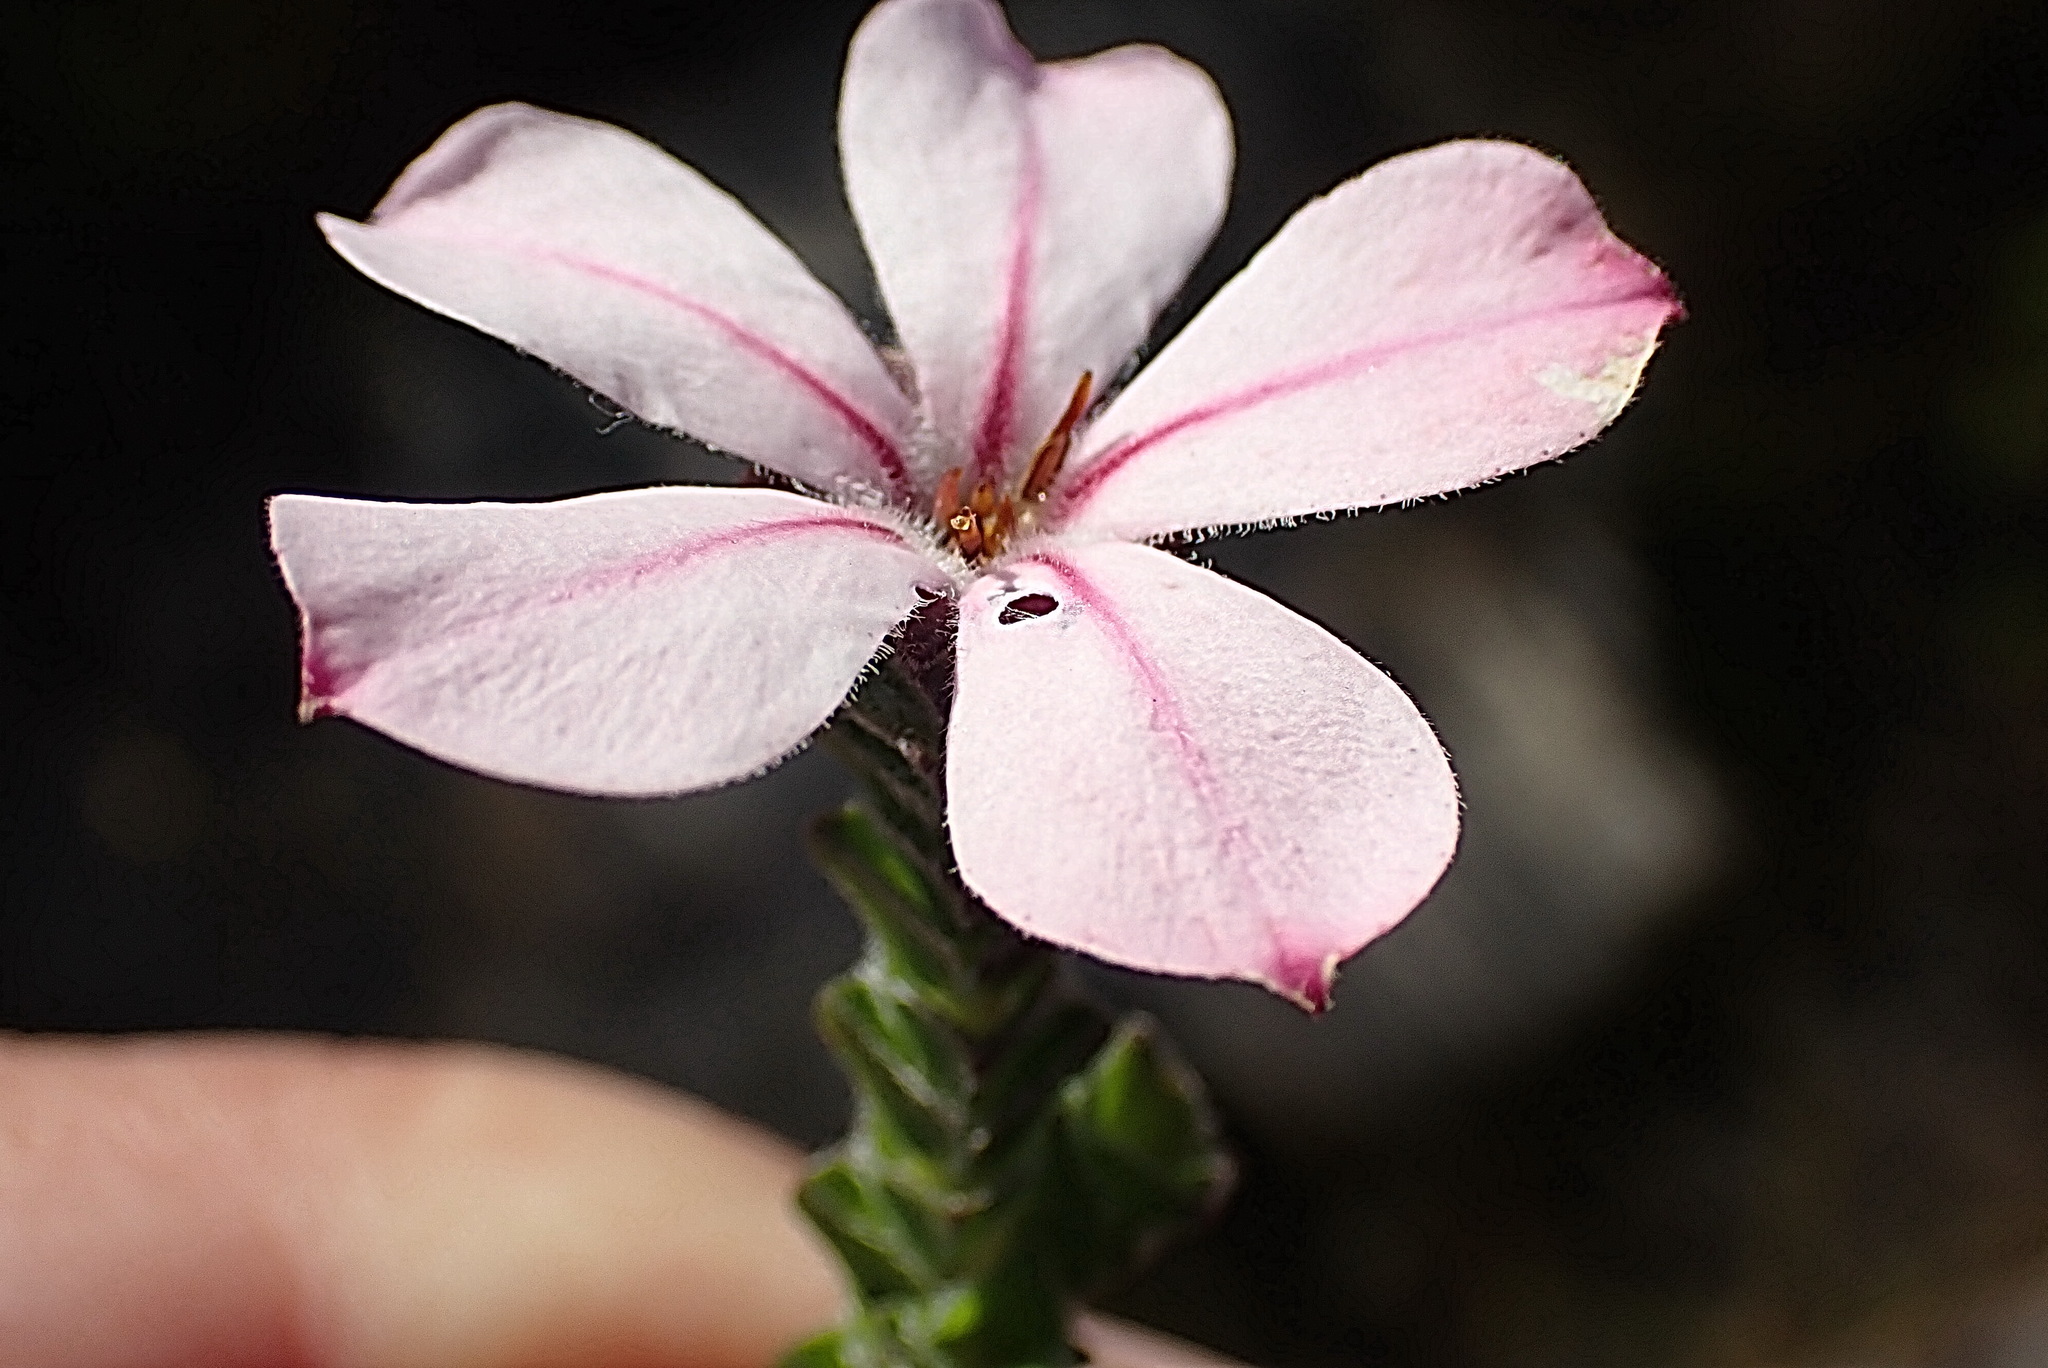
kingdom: Plantae
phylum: Tracheophyta
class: Magnoliopsida
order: Sapindales
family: Rutaceae
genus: Acmadenia
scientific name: Acmadenia tetragona
